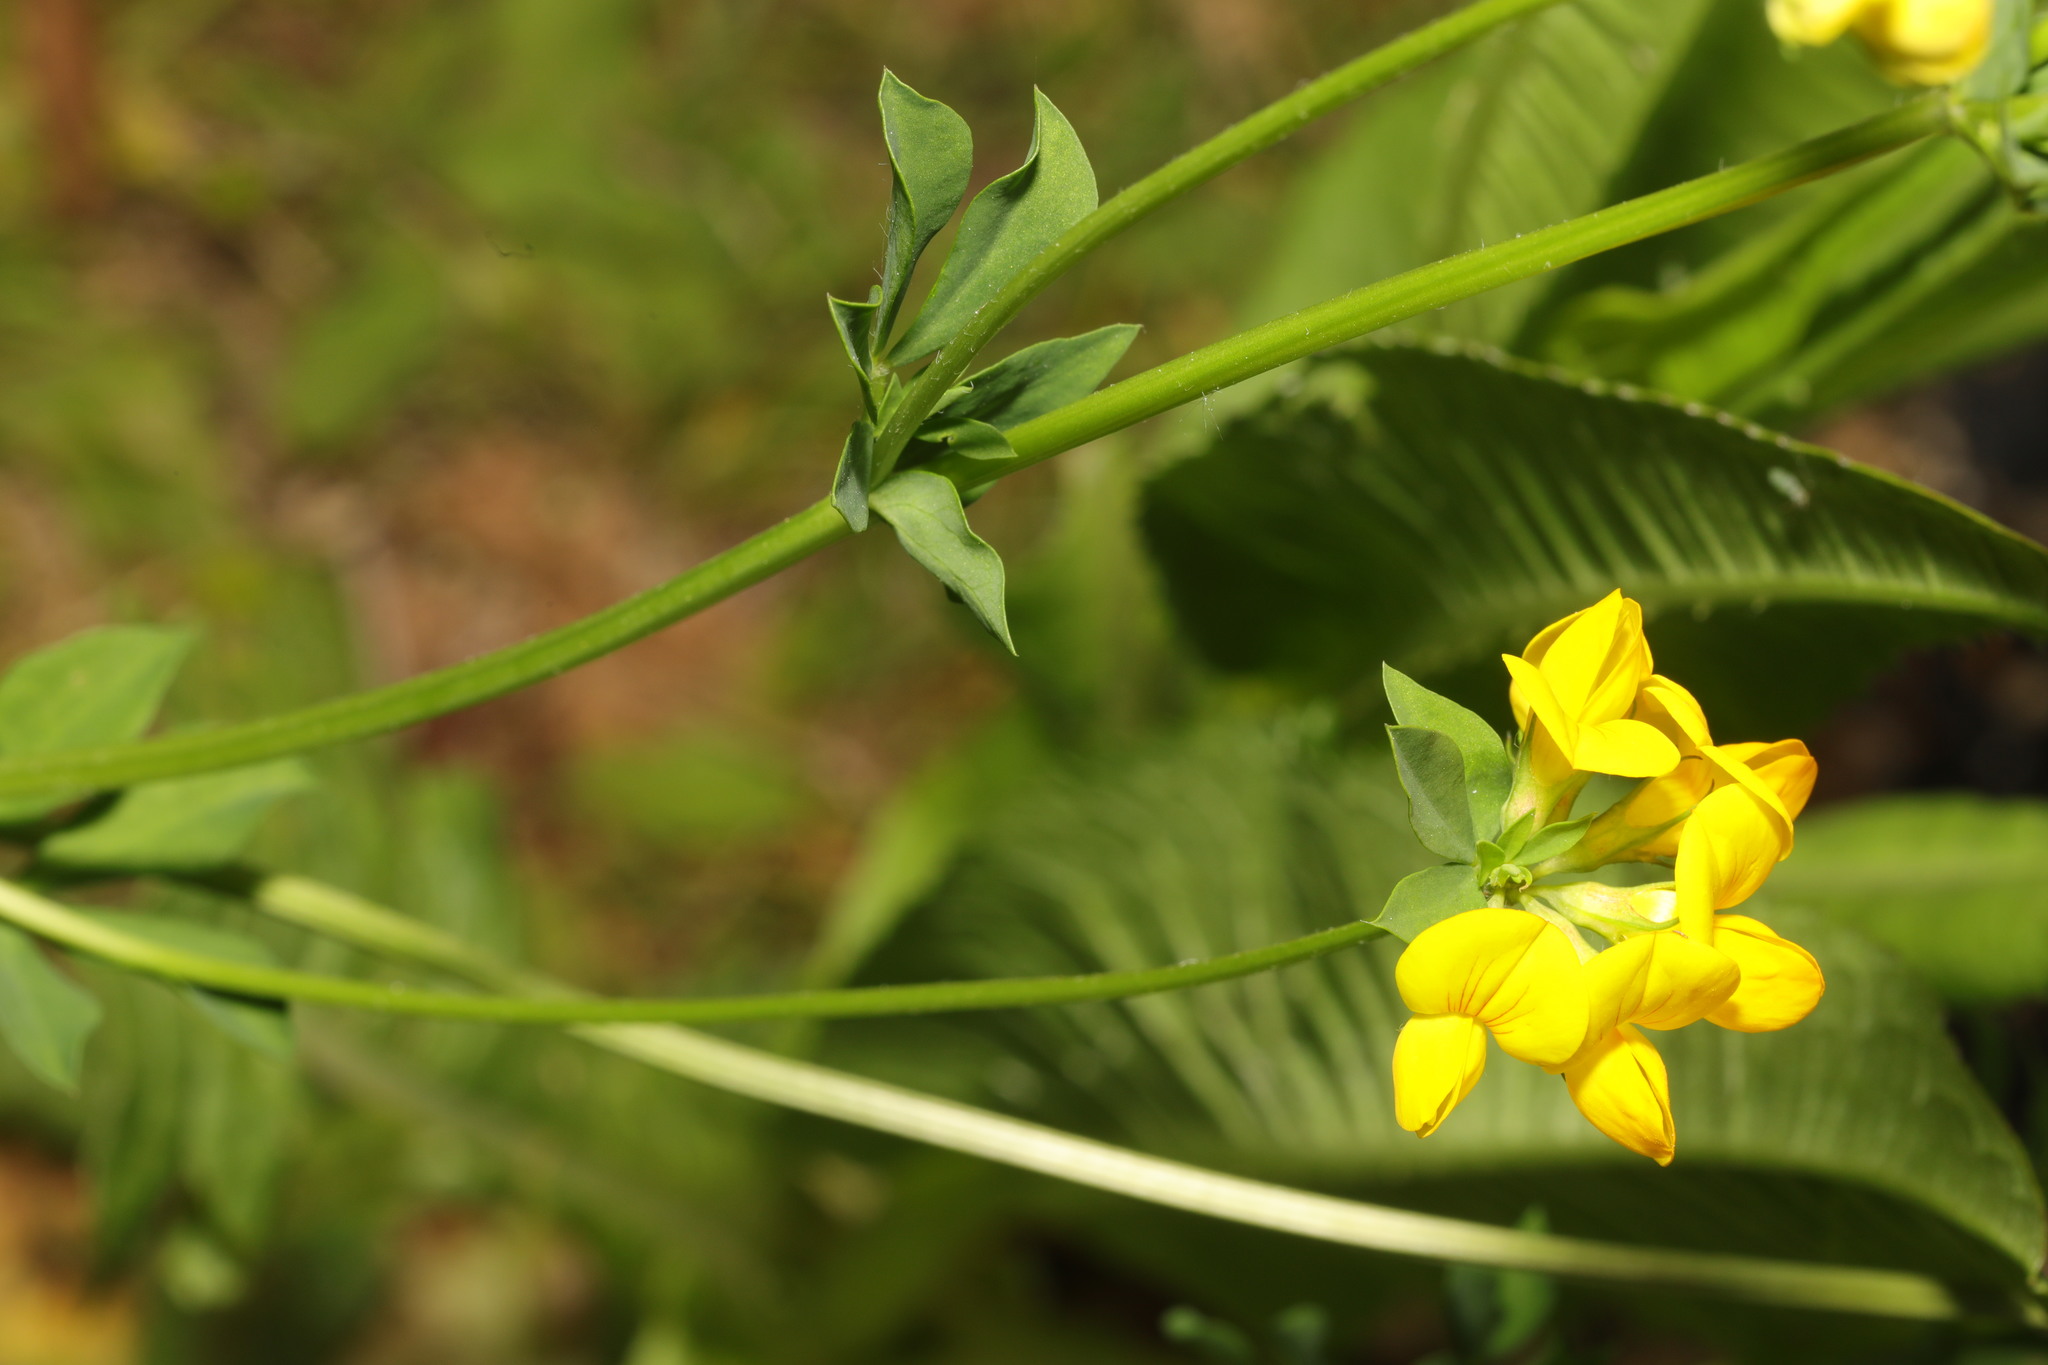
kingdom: Plantae
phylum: Tracheophyta
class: Magnoliopsida
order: Fabales
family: Fabaceae
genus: Lotus
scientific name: Lotus corniculatus
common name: Common bird's-foot-trefoil
